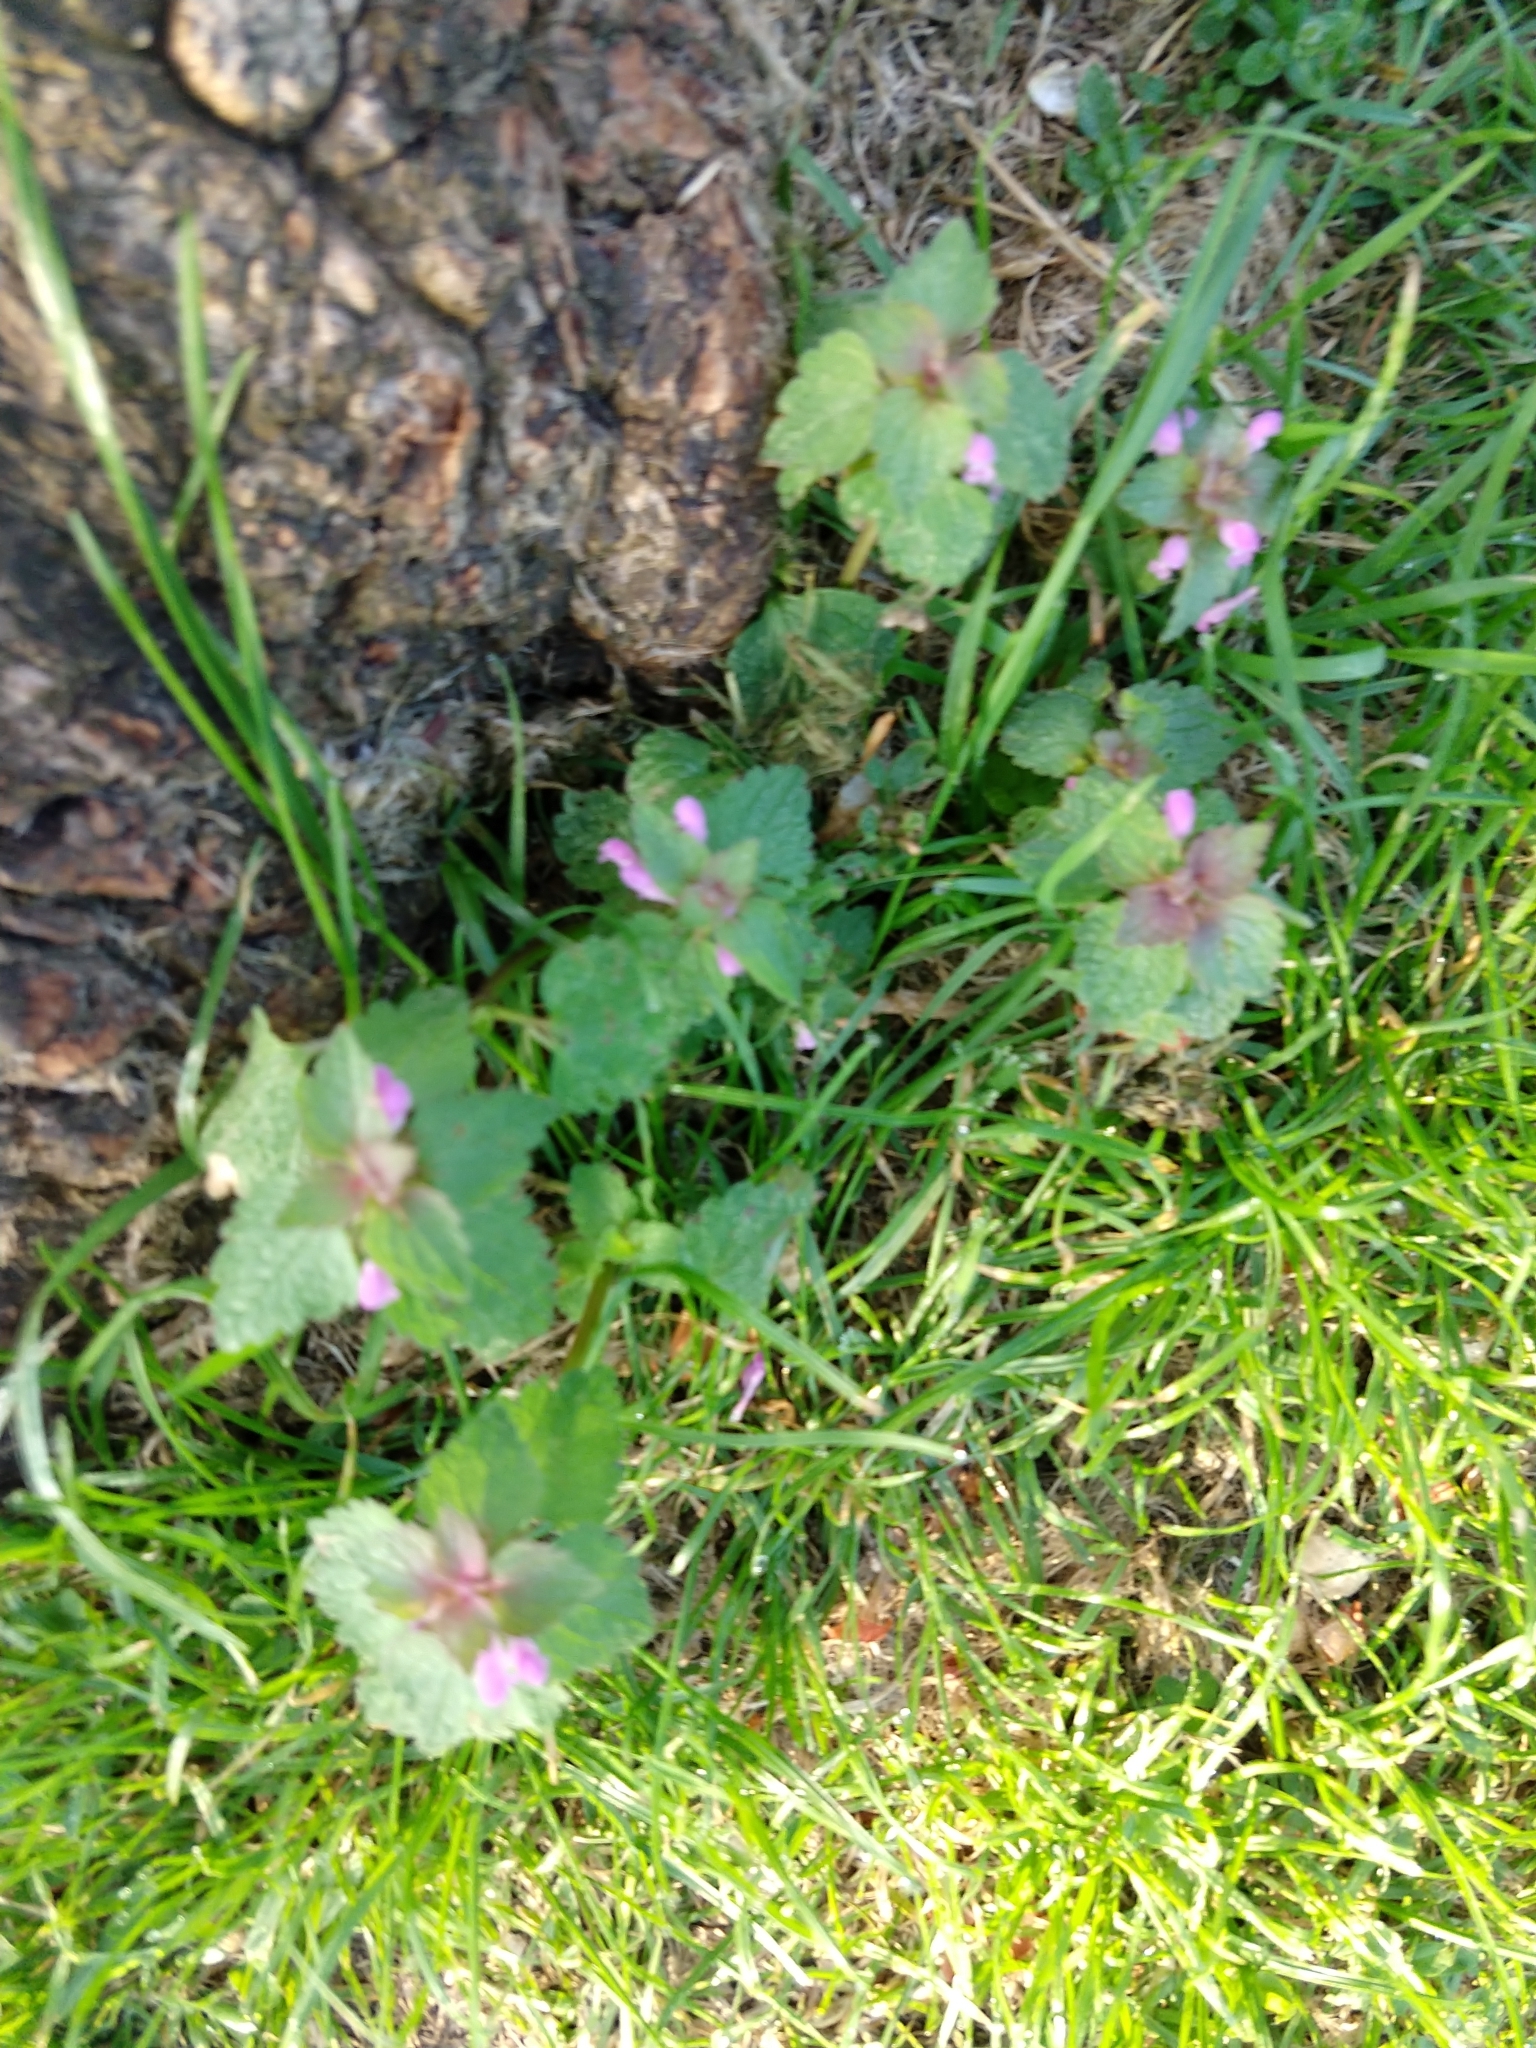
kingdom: Plantae
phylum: Tracheophyta
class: Magnoliopsida
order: Lamiales
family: Lamiaceae
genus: Lamium
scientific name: Lamium purpureum
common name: Red dead-nettle
